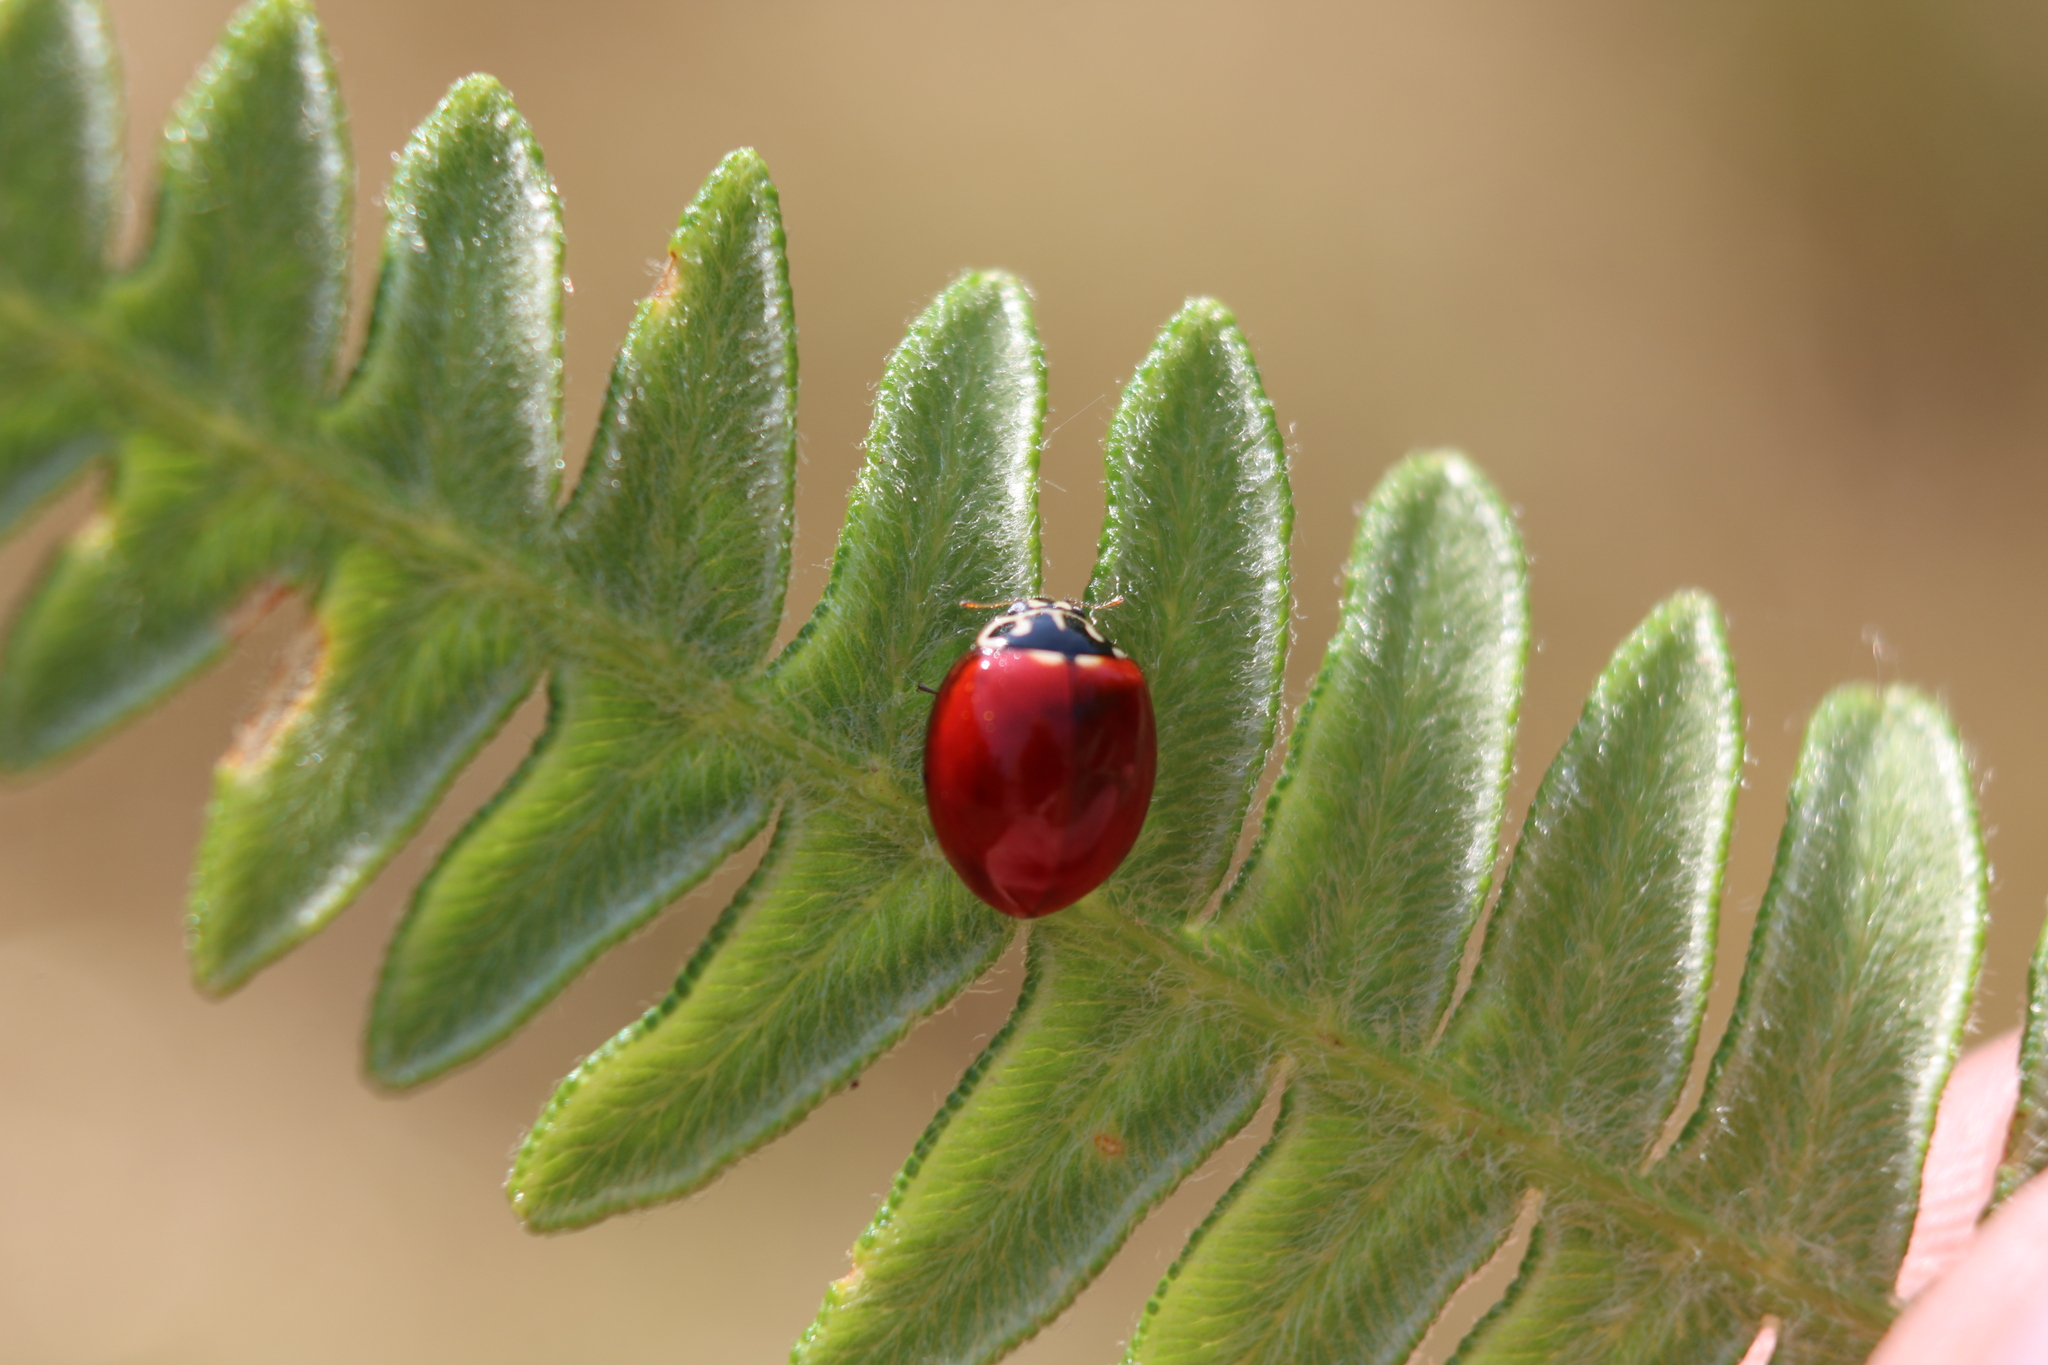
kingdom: Animalia
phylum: Arthropoda
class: Insecta
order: Coleoptera
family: Coccinellidae
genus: Cycloneda
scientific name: Cycloneda polita
